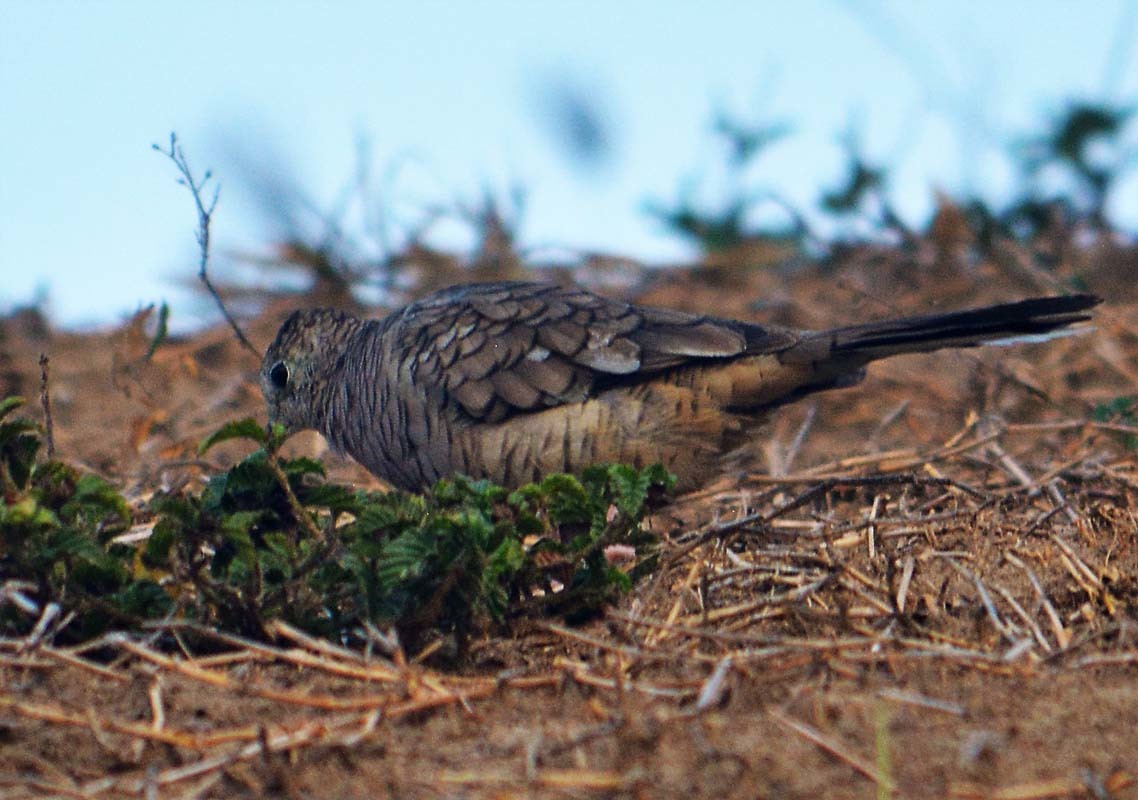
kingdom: Animalia
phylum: Chordata
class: Aves
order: Columbiformes
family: Columbidae
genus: Columbina
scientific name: Columbina inca
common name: Inca dove
